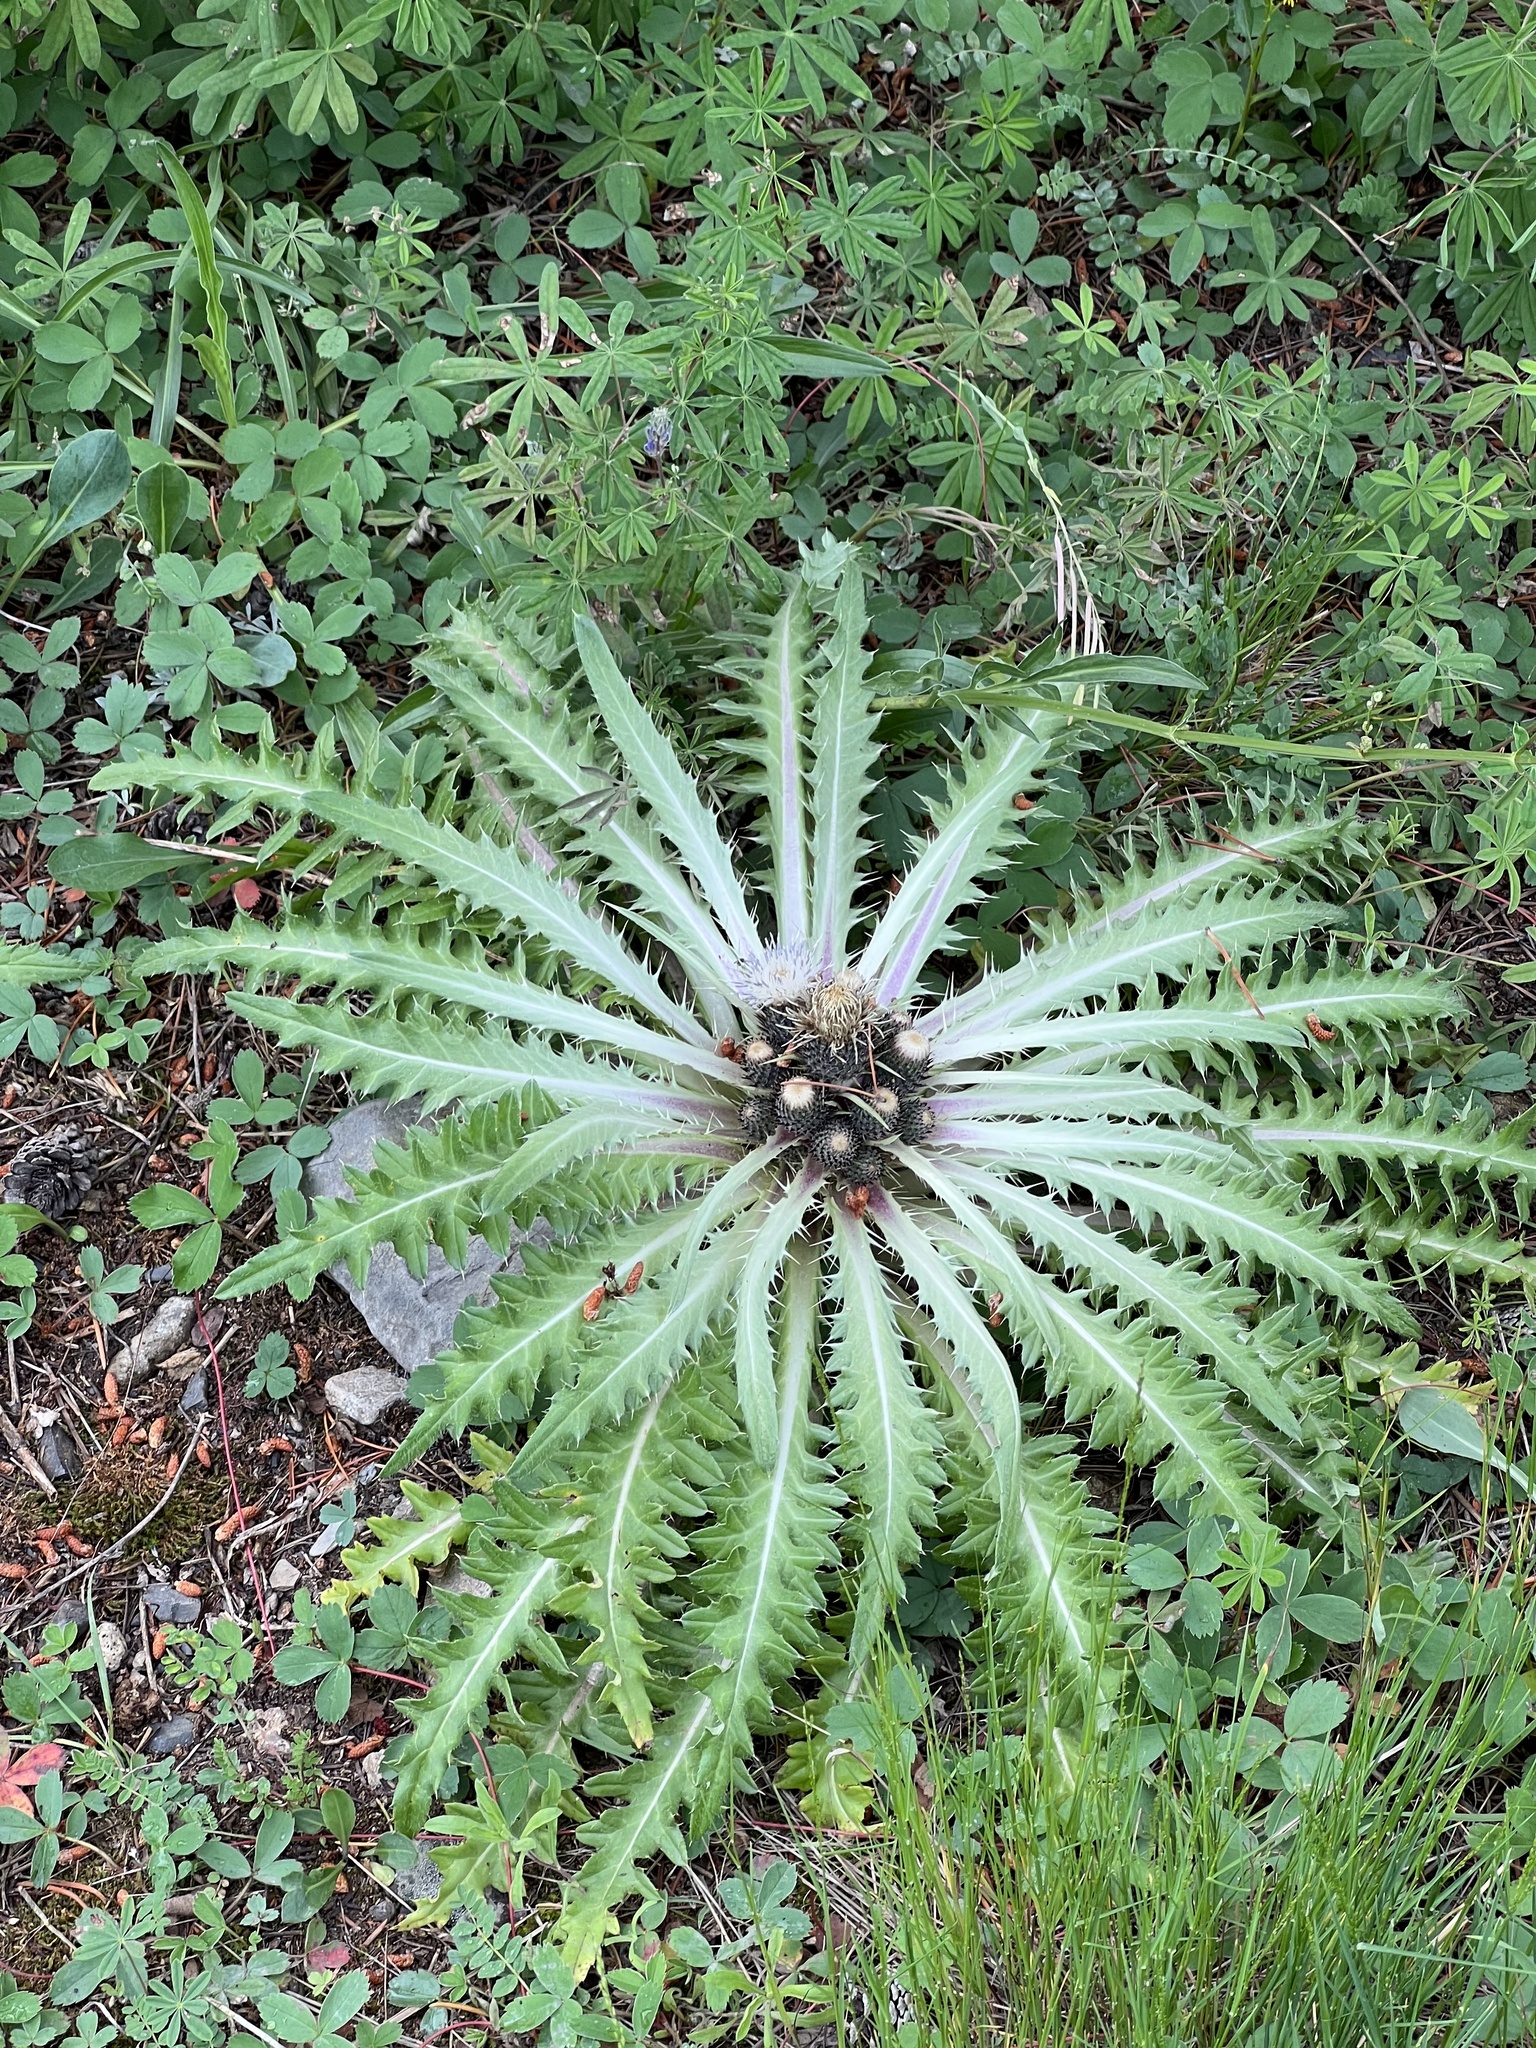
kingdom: Plantae
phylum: Tracheophyta
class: Magnoliopsida
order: Asterales
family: Asteraceae
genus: Cirsium
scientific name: Cirsium tioganum
